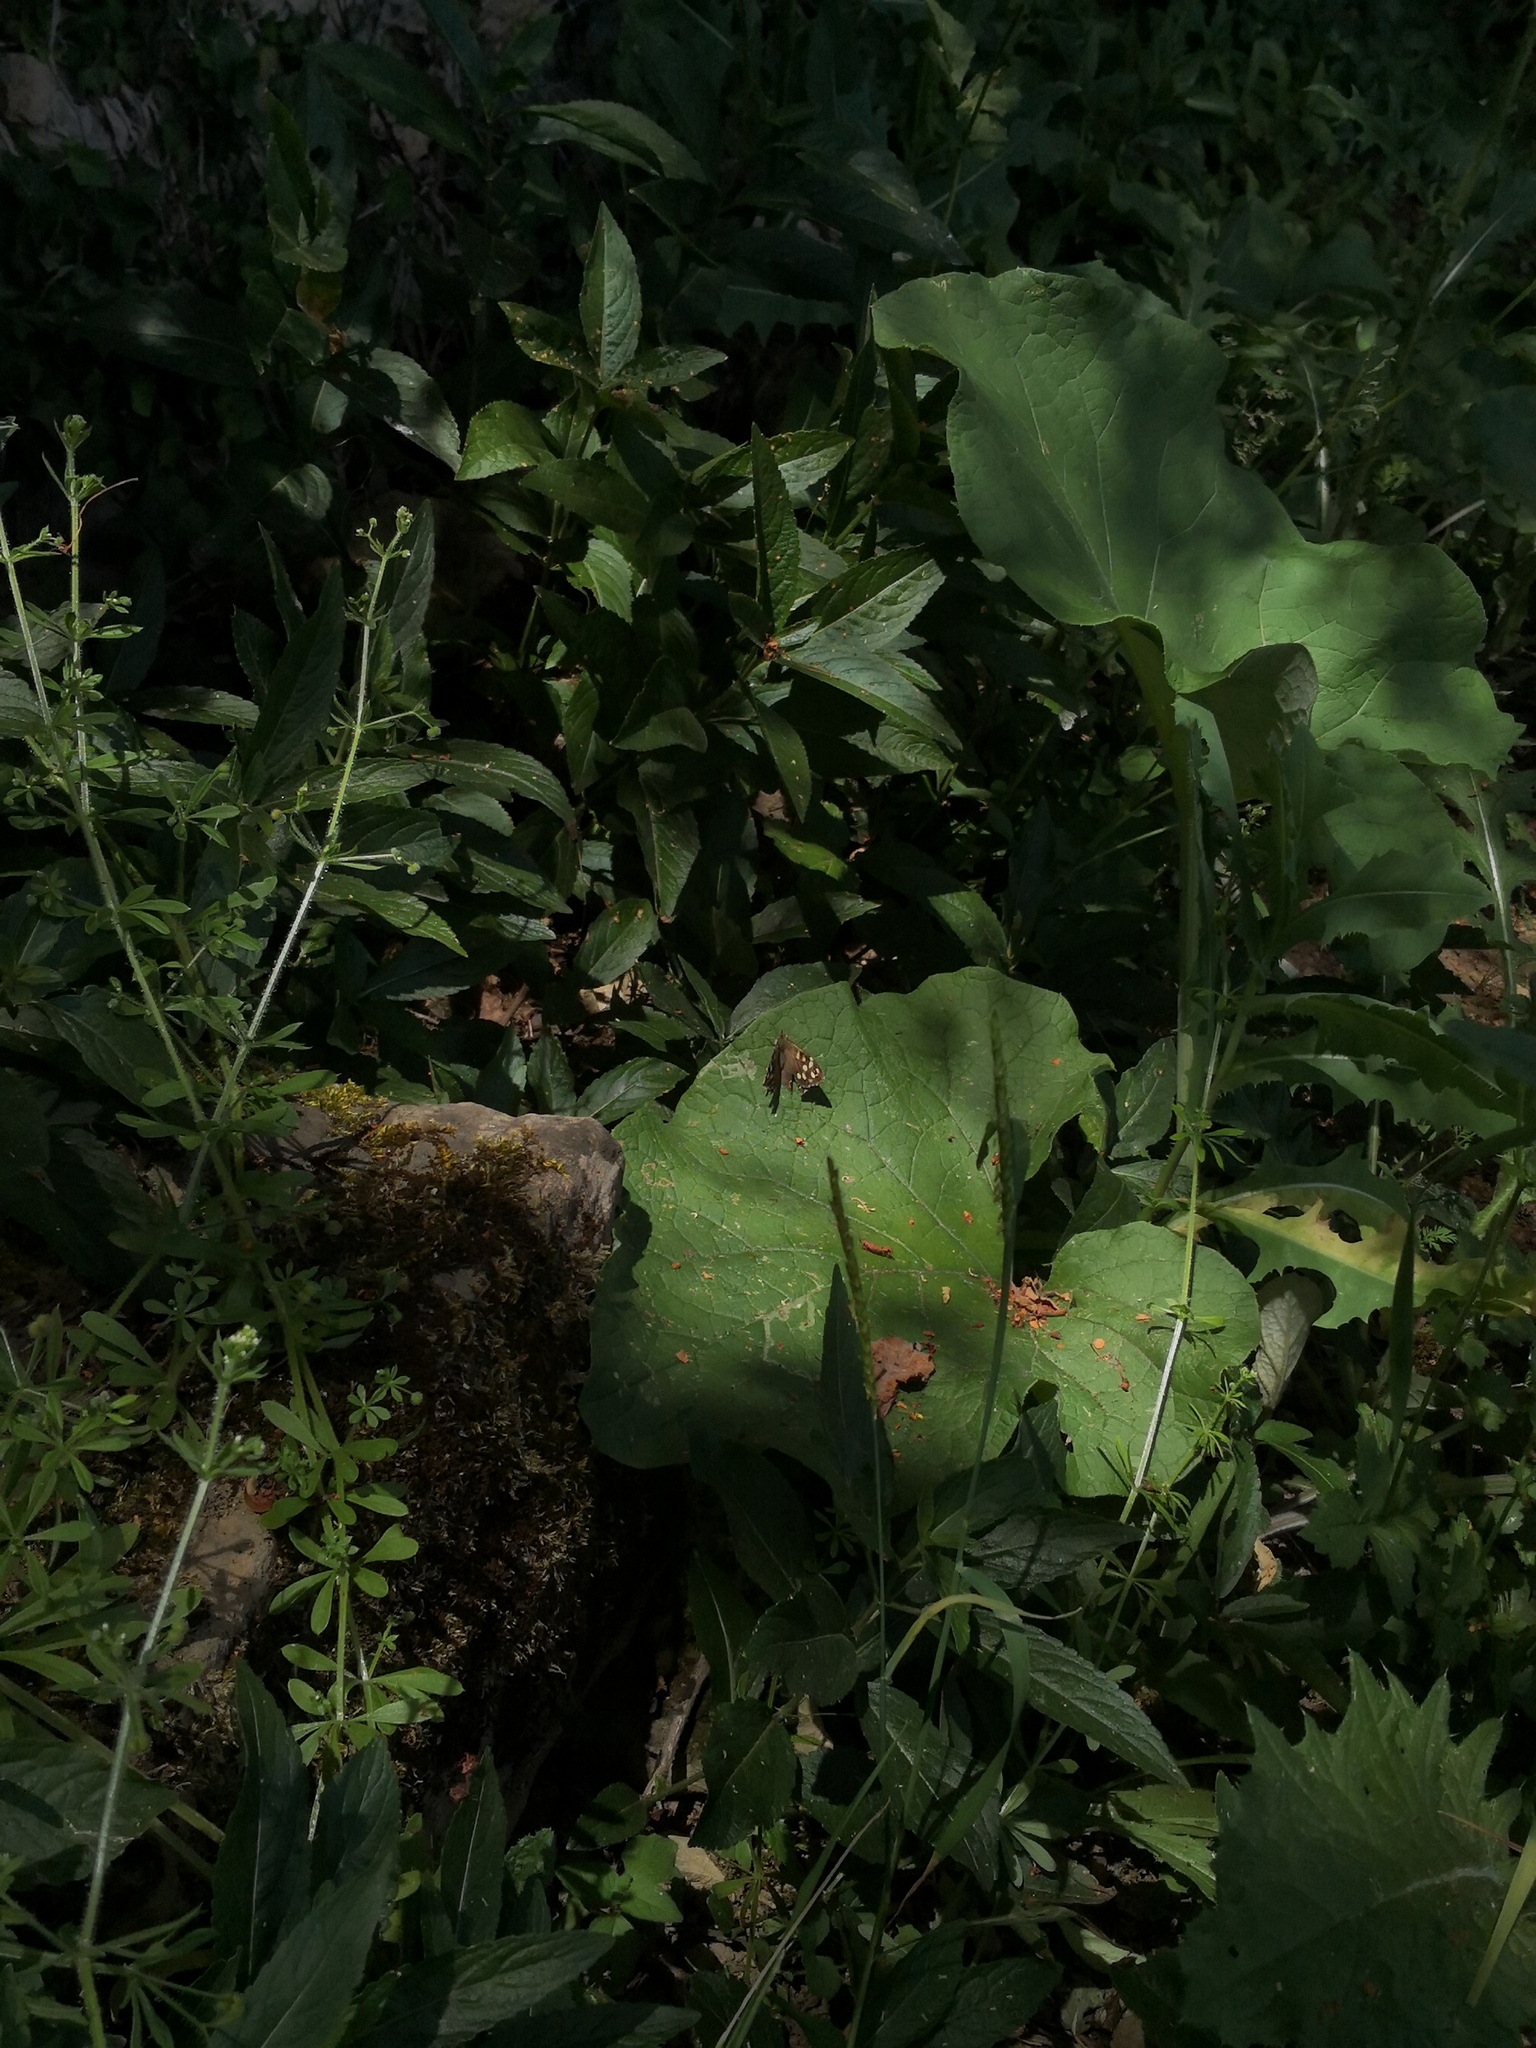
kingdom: Animalia
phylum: Arthropoda
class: Insecta
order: Lepidoptera
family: Nymphalidae
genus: Pararge
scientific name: Pararge aegeria
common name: Speckled wood
